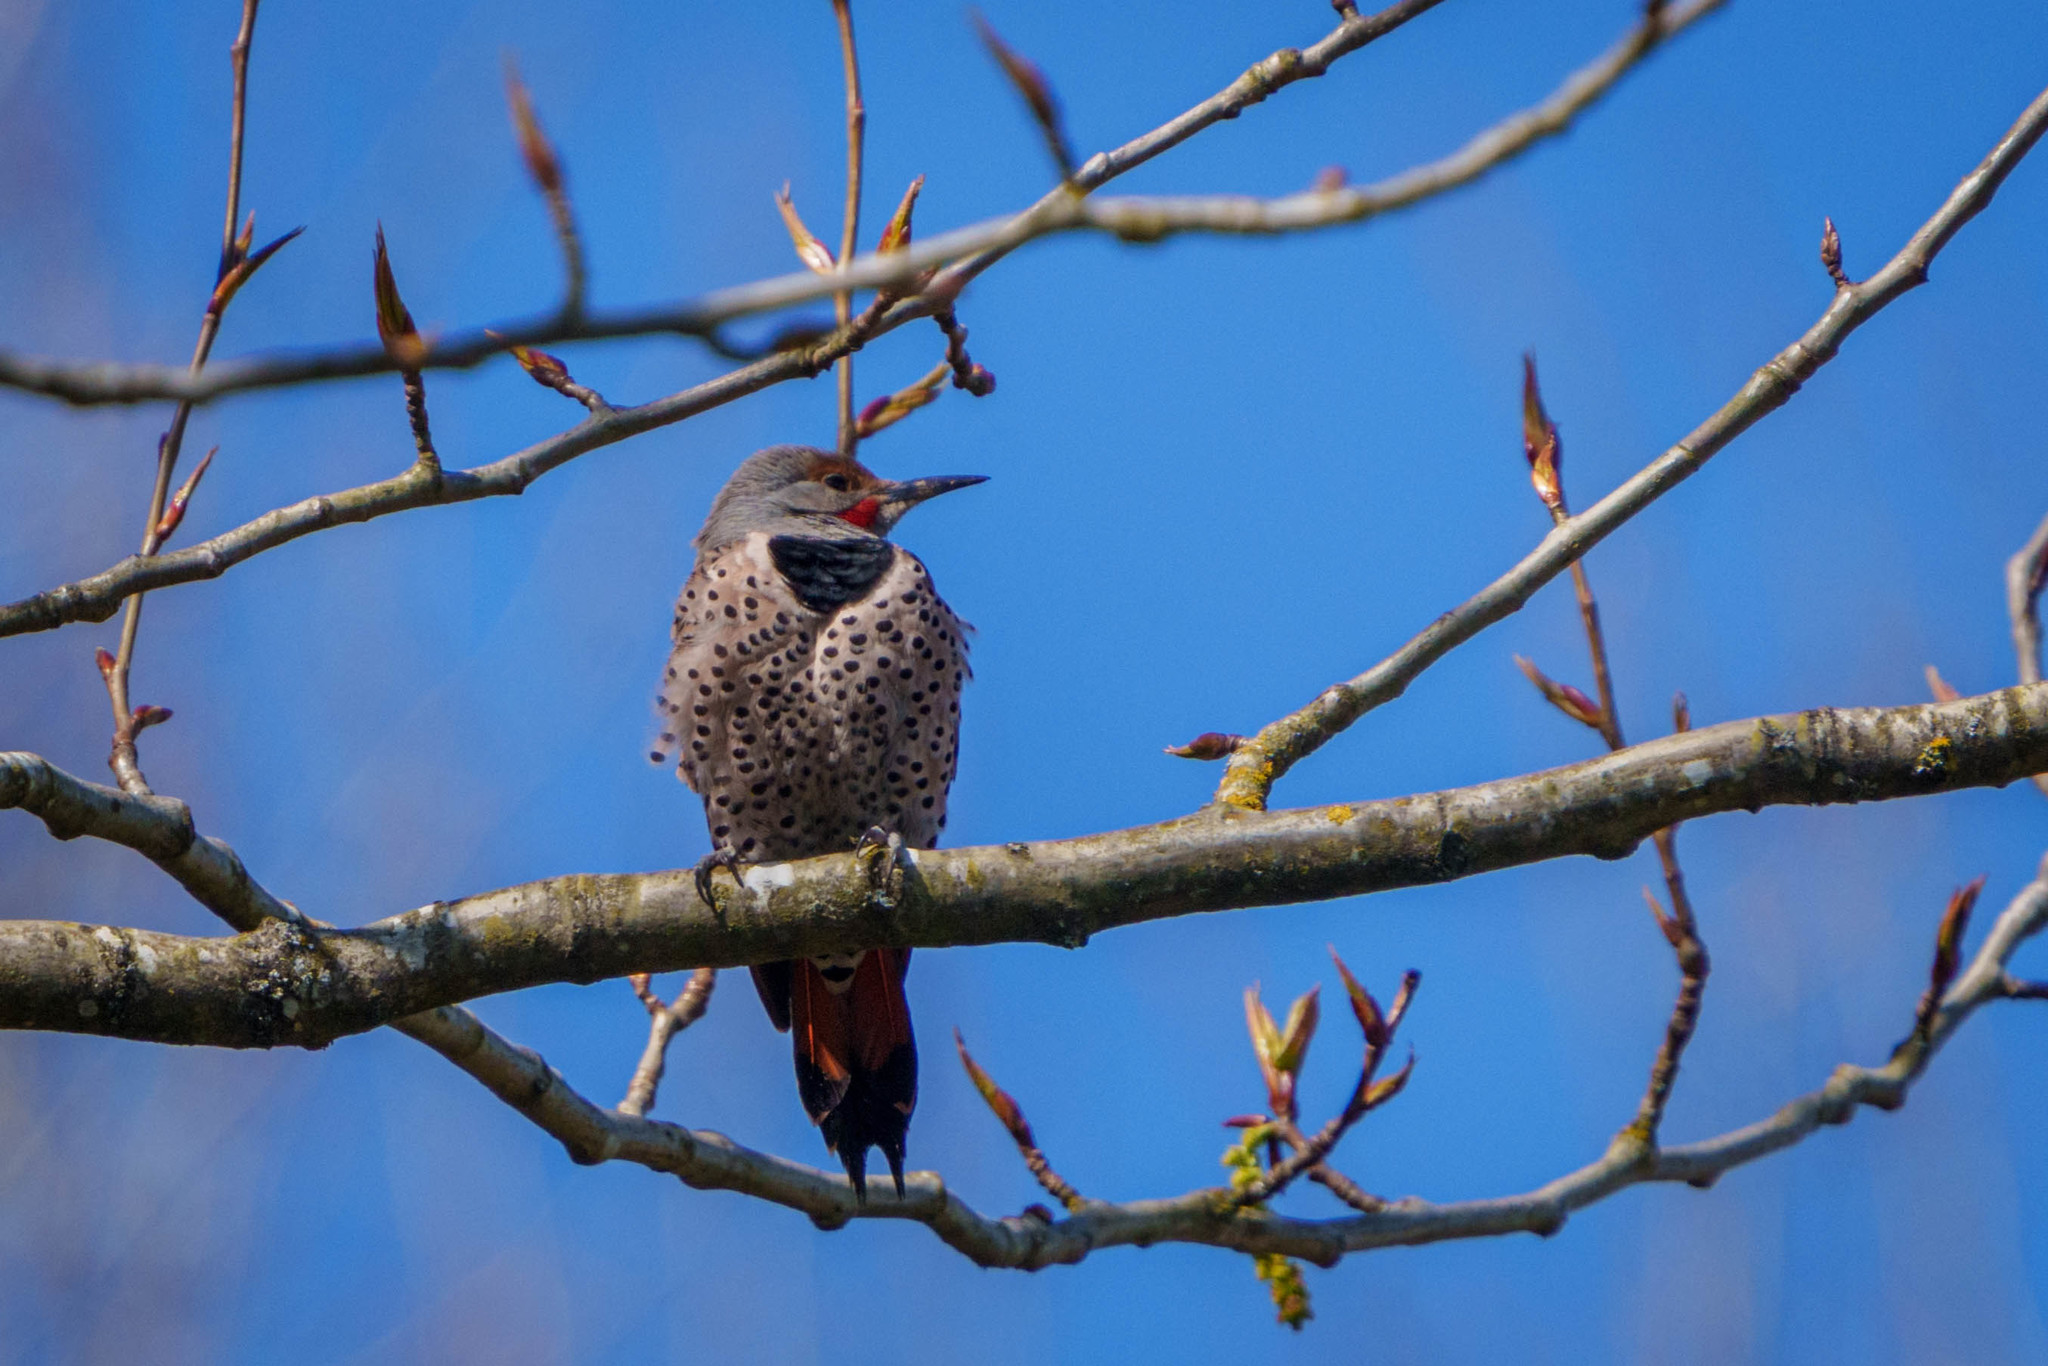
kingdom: Animalia
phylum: Chordata
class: Aves
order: Piciformes
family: Picidae
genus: Colaptes
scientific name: Colaptes auratus
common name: Northern flicker
